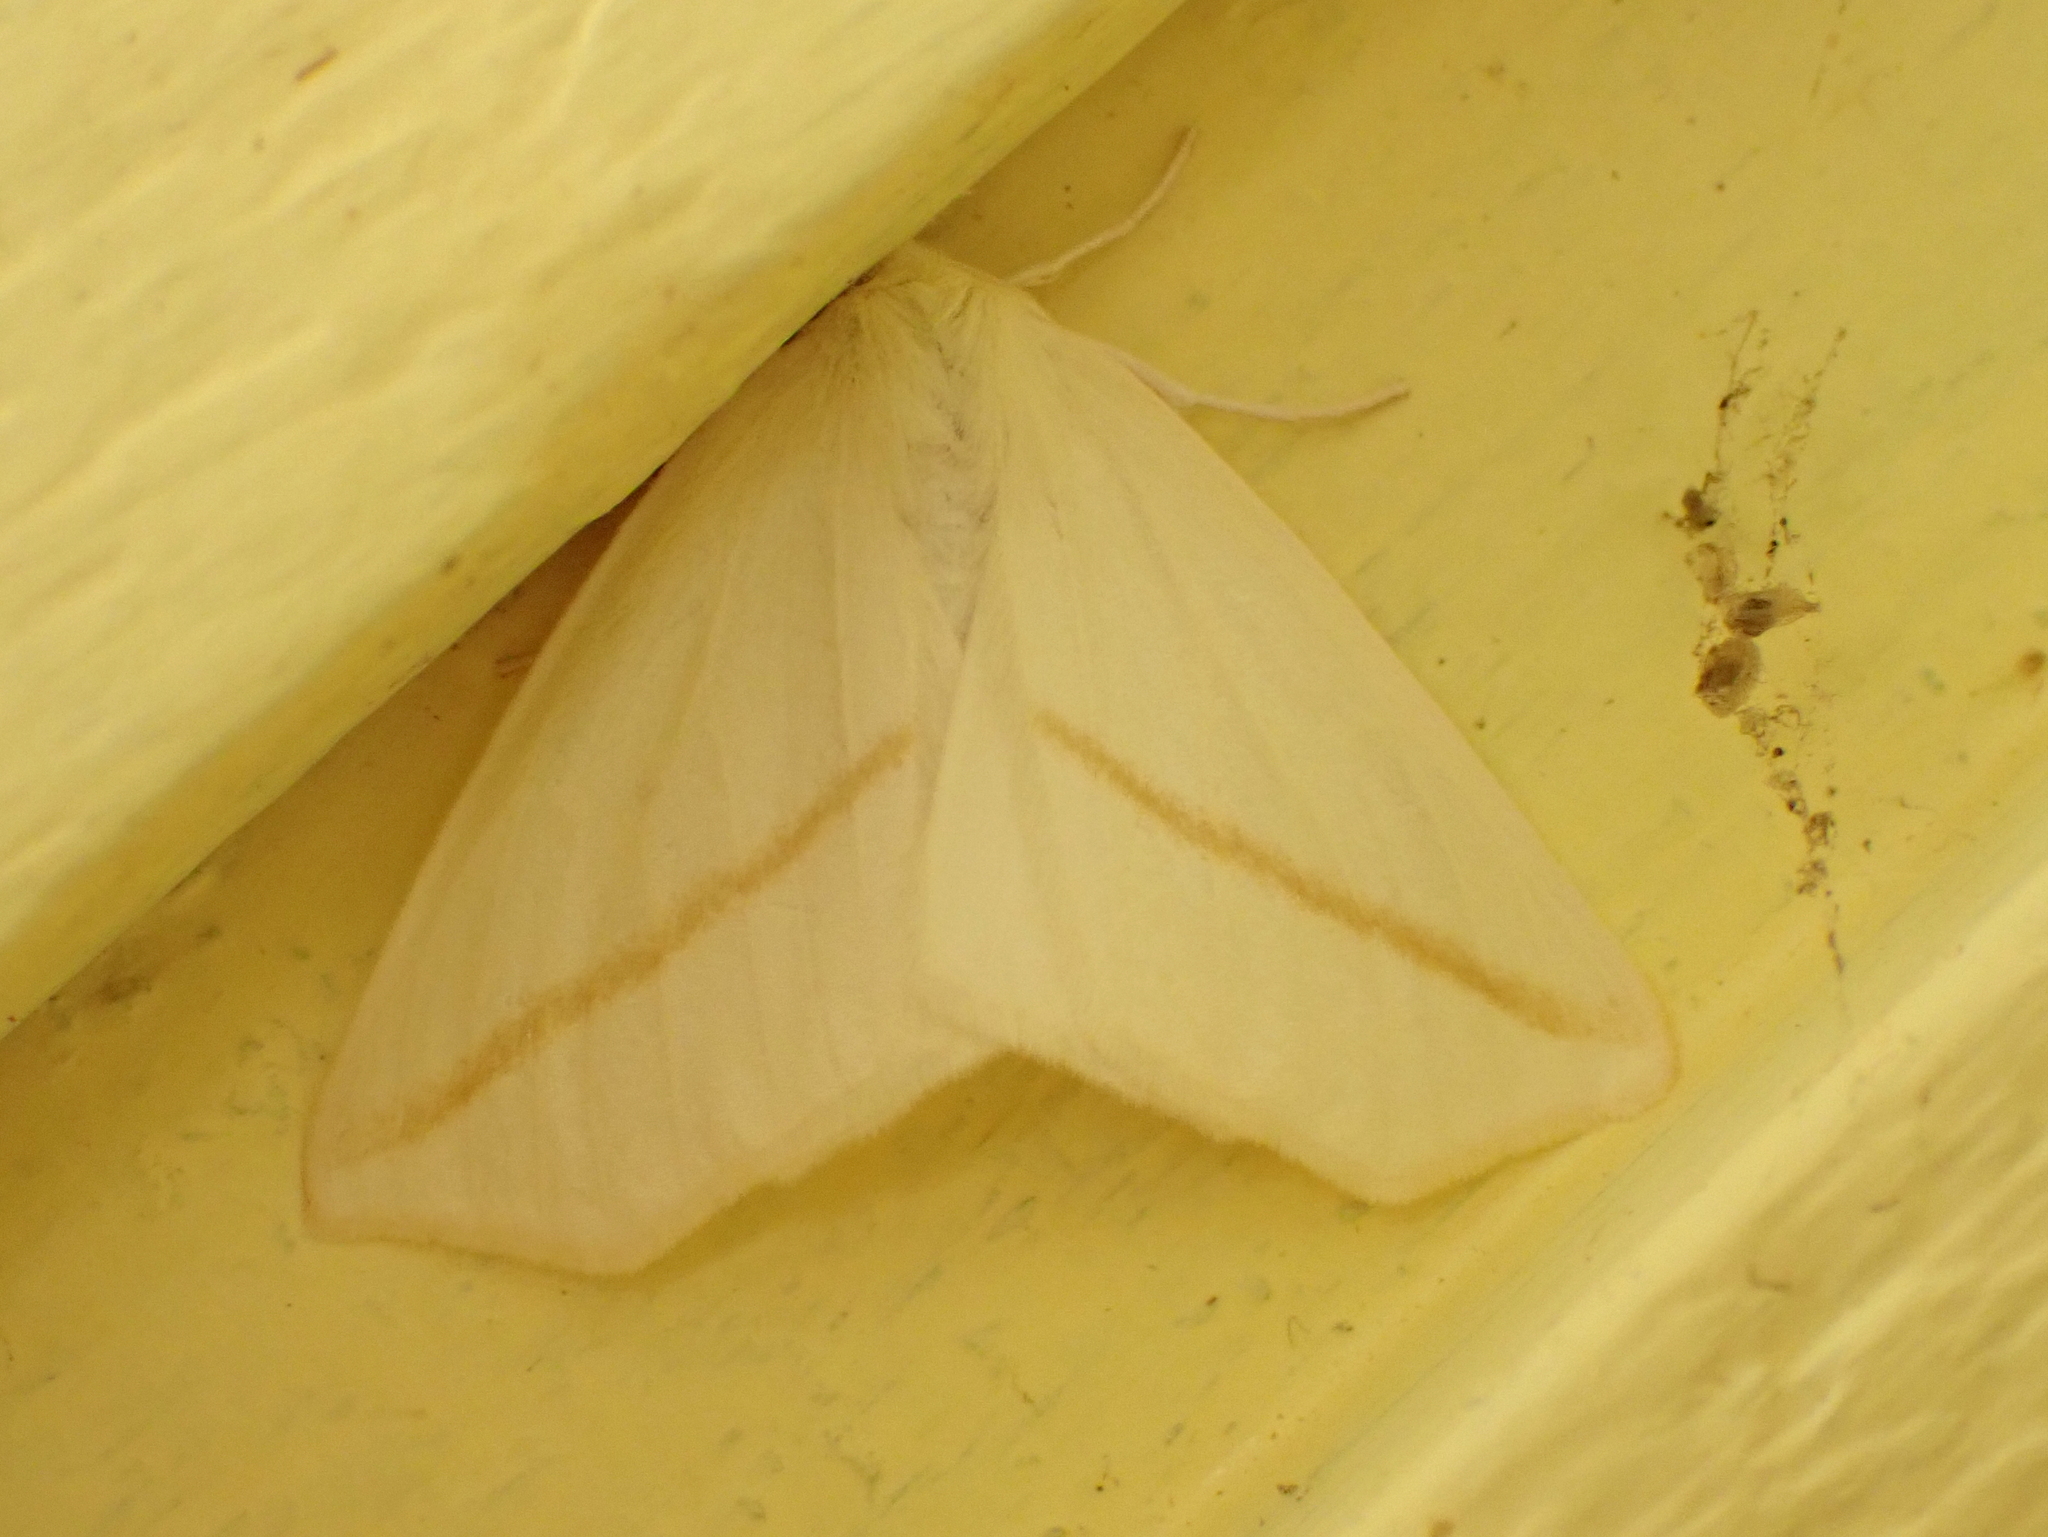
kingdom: Animalia
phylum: Arthropoda
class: Insecta
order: Lepidoptera
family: Geometridae
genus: Tetracis
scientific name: Tetracis cachexiata
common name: White slant-line
